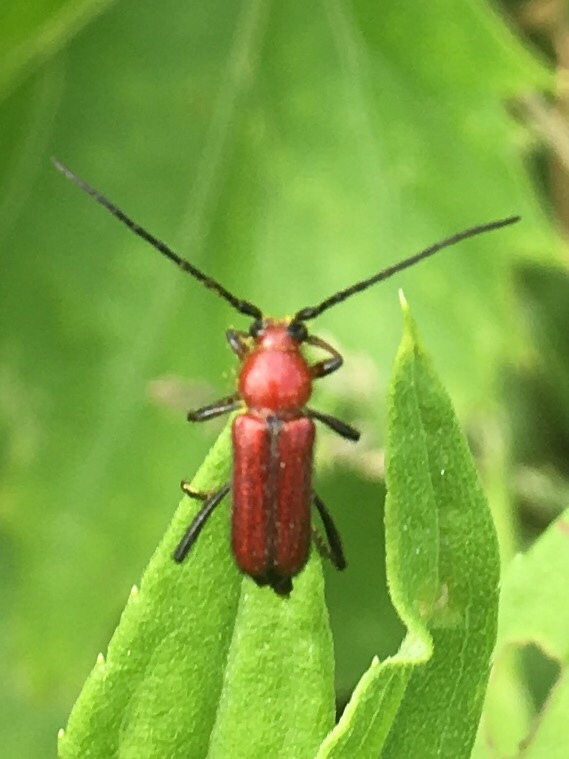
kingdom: Animalia
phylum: Arthropoda
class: Insecta
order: Coleoptera
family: Cerambycidae
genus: Batyle
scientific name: Batyle suturalis
